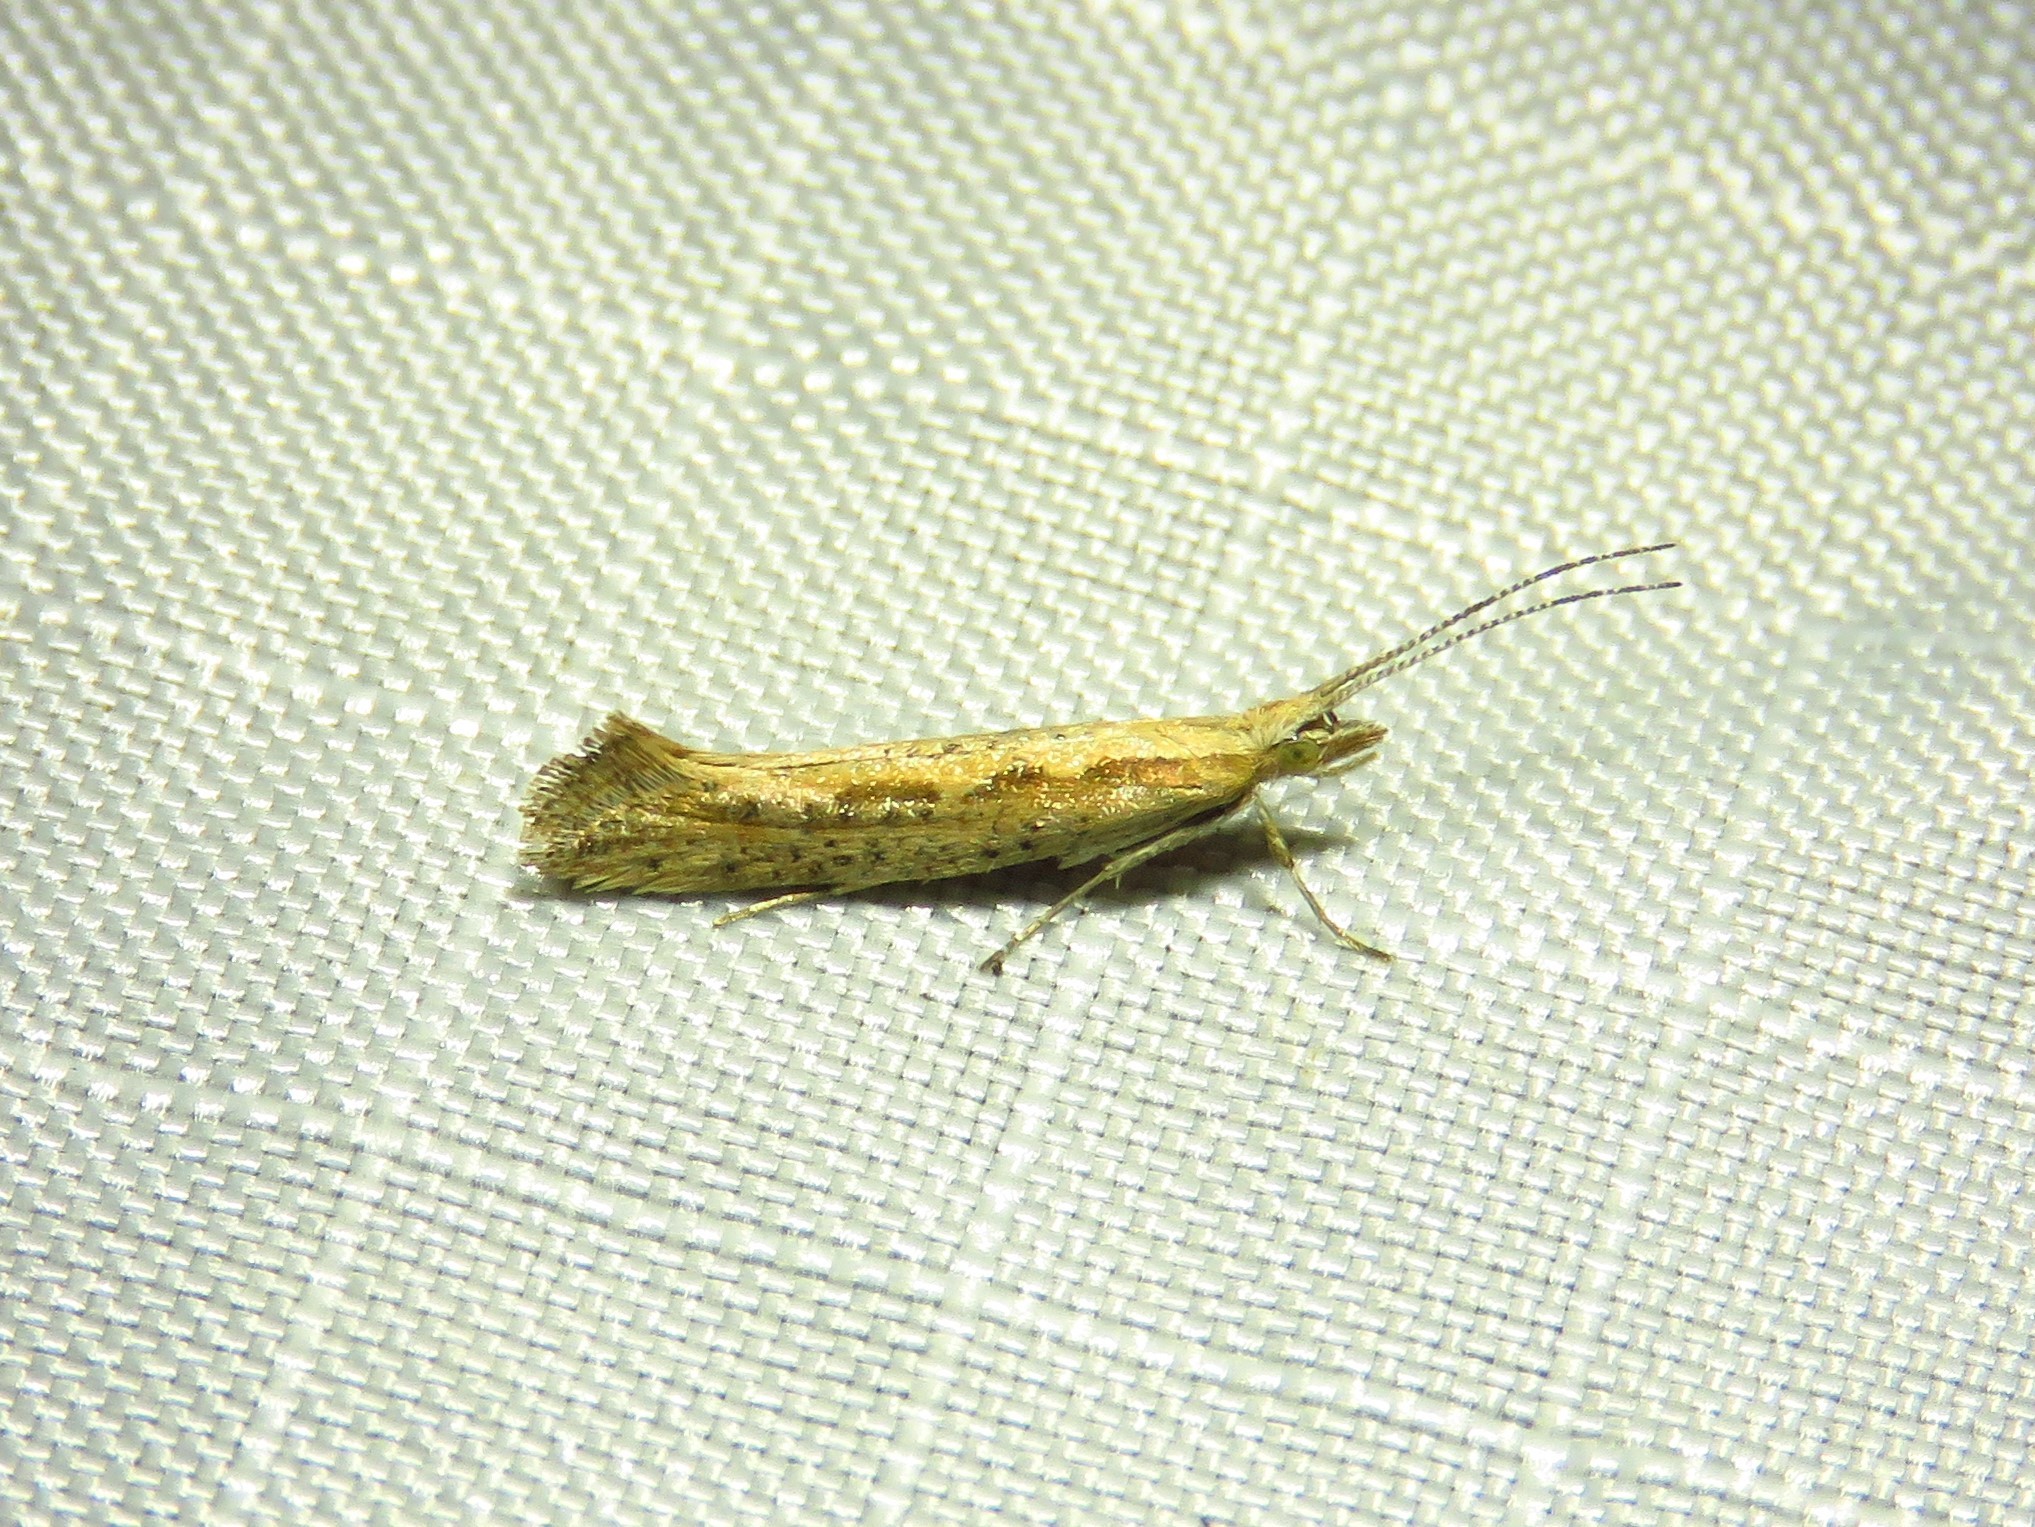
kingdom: Animalia
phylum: Arthropoda
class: Insecta
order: Lepidoptera
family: Plutellidae
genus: Plutella
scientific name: Plutella xylostella
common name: Diamond-back moth
